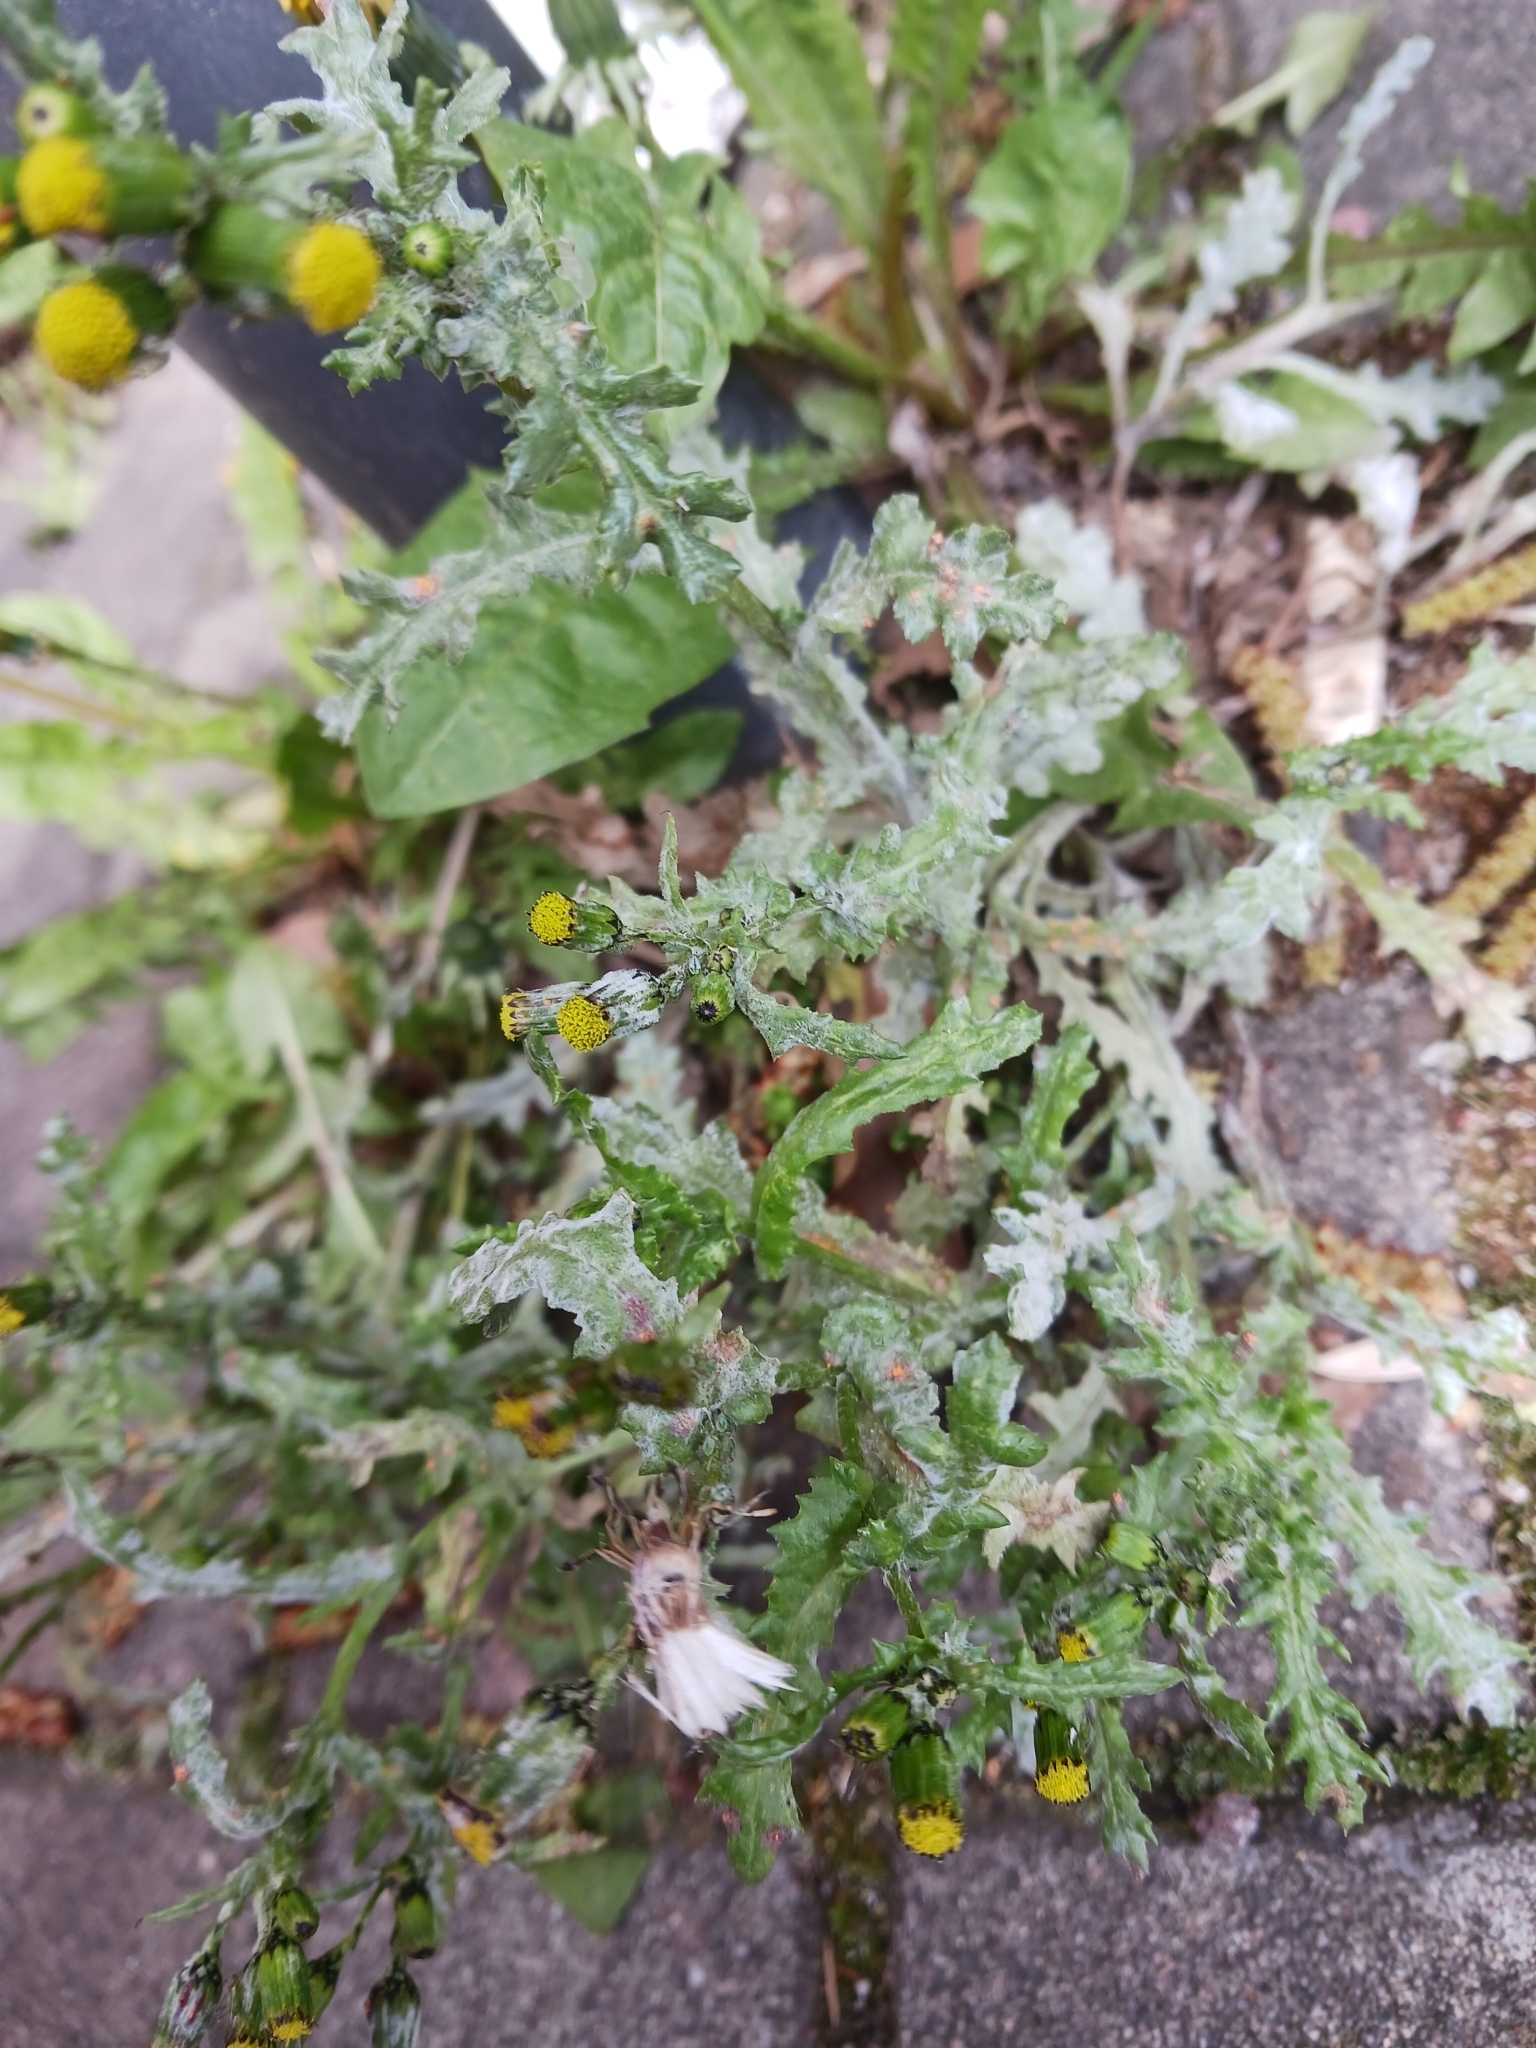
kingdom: Fungi
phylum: Ascomycota
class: Leotiomycetes
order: Helotiales
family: Erysiphaceae
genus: Golovinomyces
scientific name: Golovinomyces fischeri
